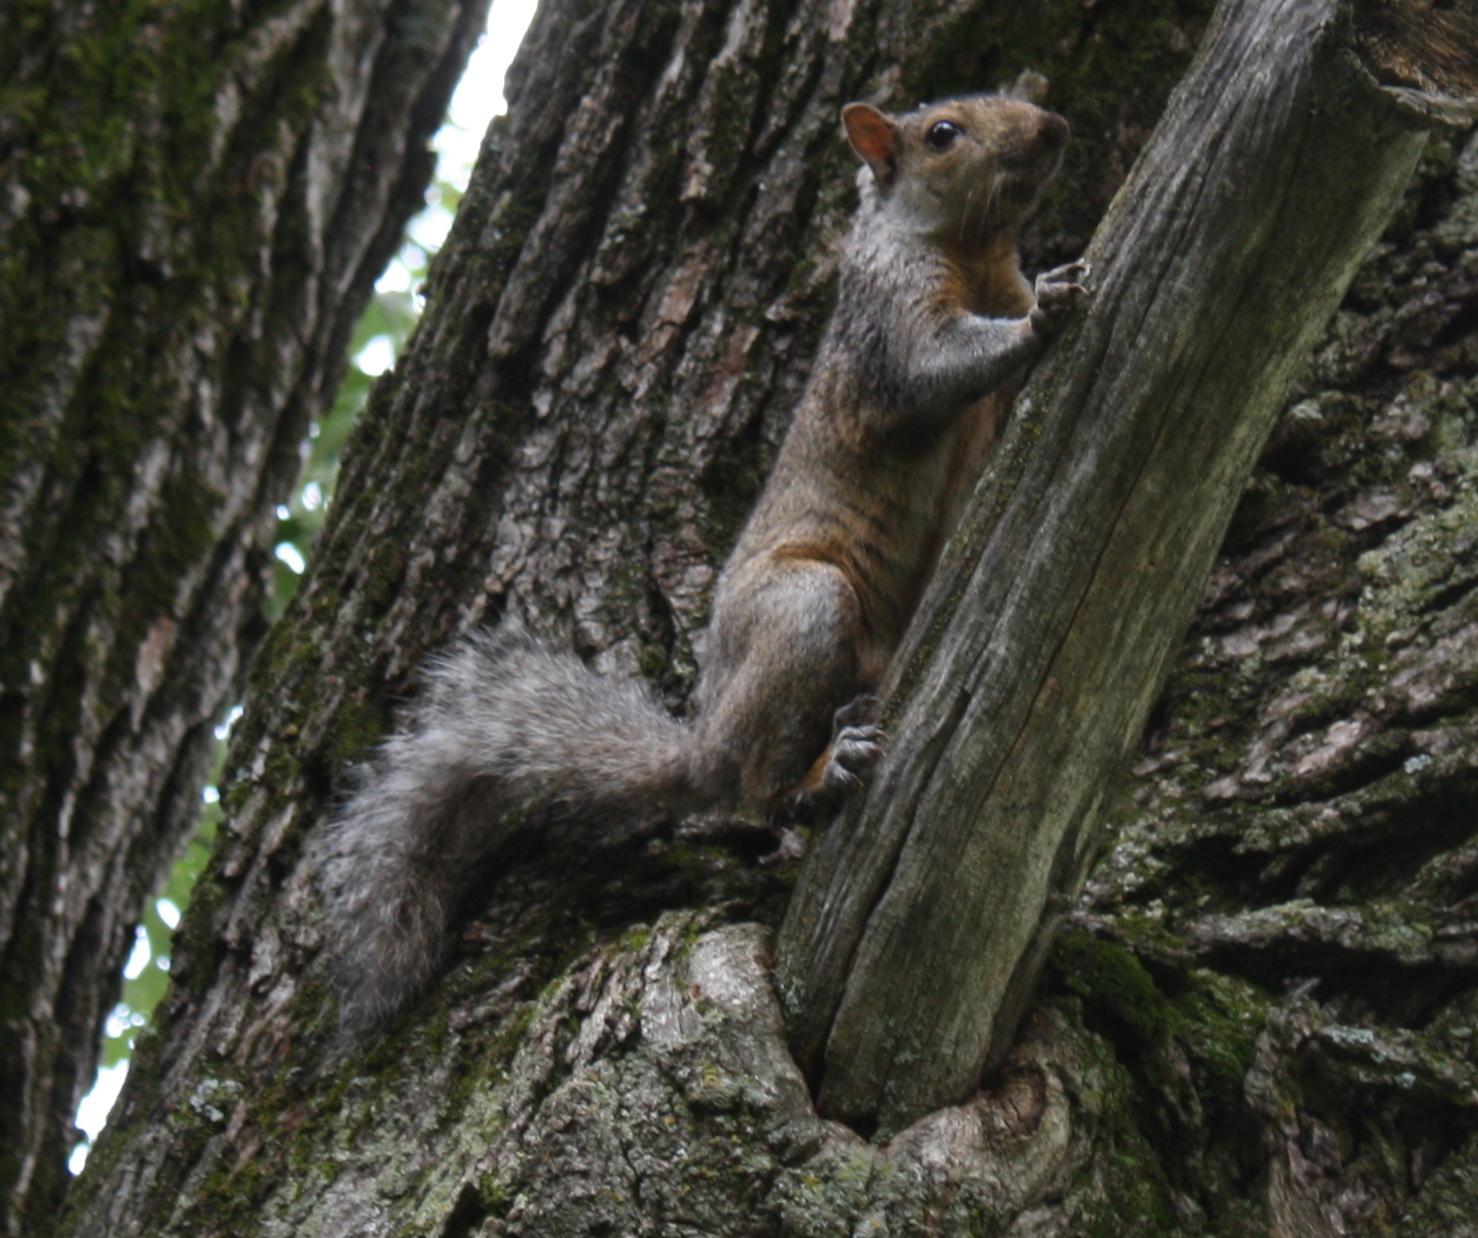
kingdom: Animalia
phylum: Chordata
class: Mammalia
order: Rodentia
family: Sciuridae
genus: Sciurus
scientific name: Sciurus carolinensis
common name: Eastern gray squirrel
